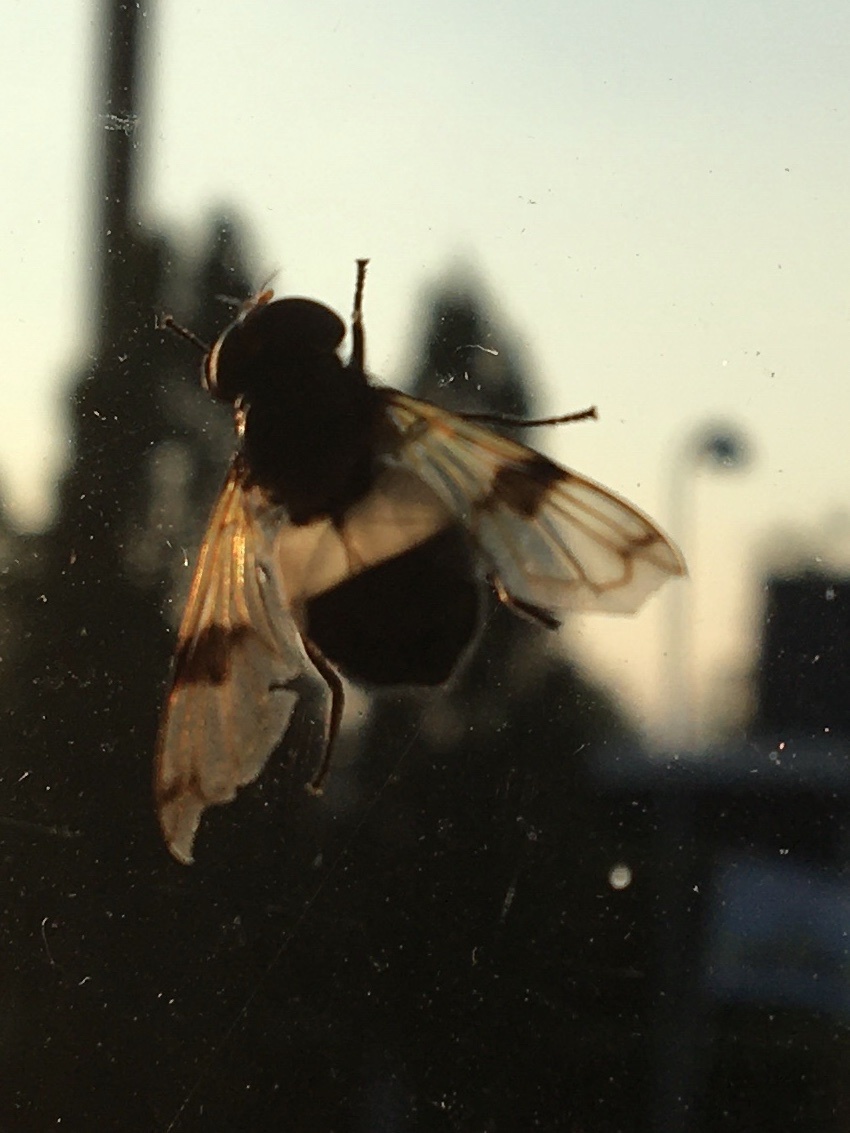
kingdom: Animalia
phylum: Arthropoda
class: Insecta
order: Diptera
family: Syrphidae
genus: Volucella
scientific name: Volucella pellucens
